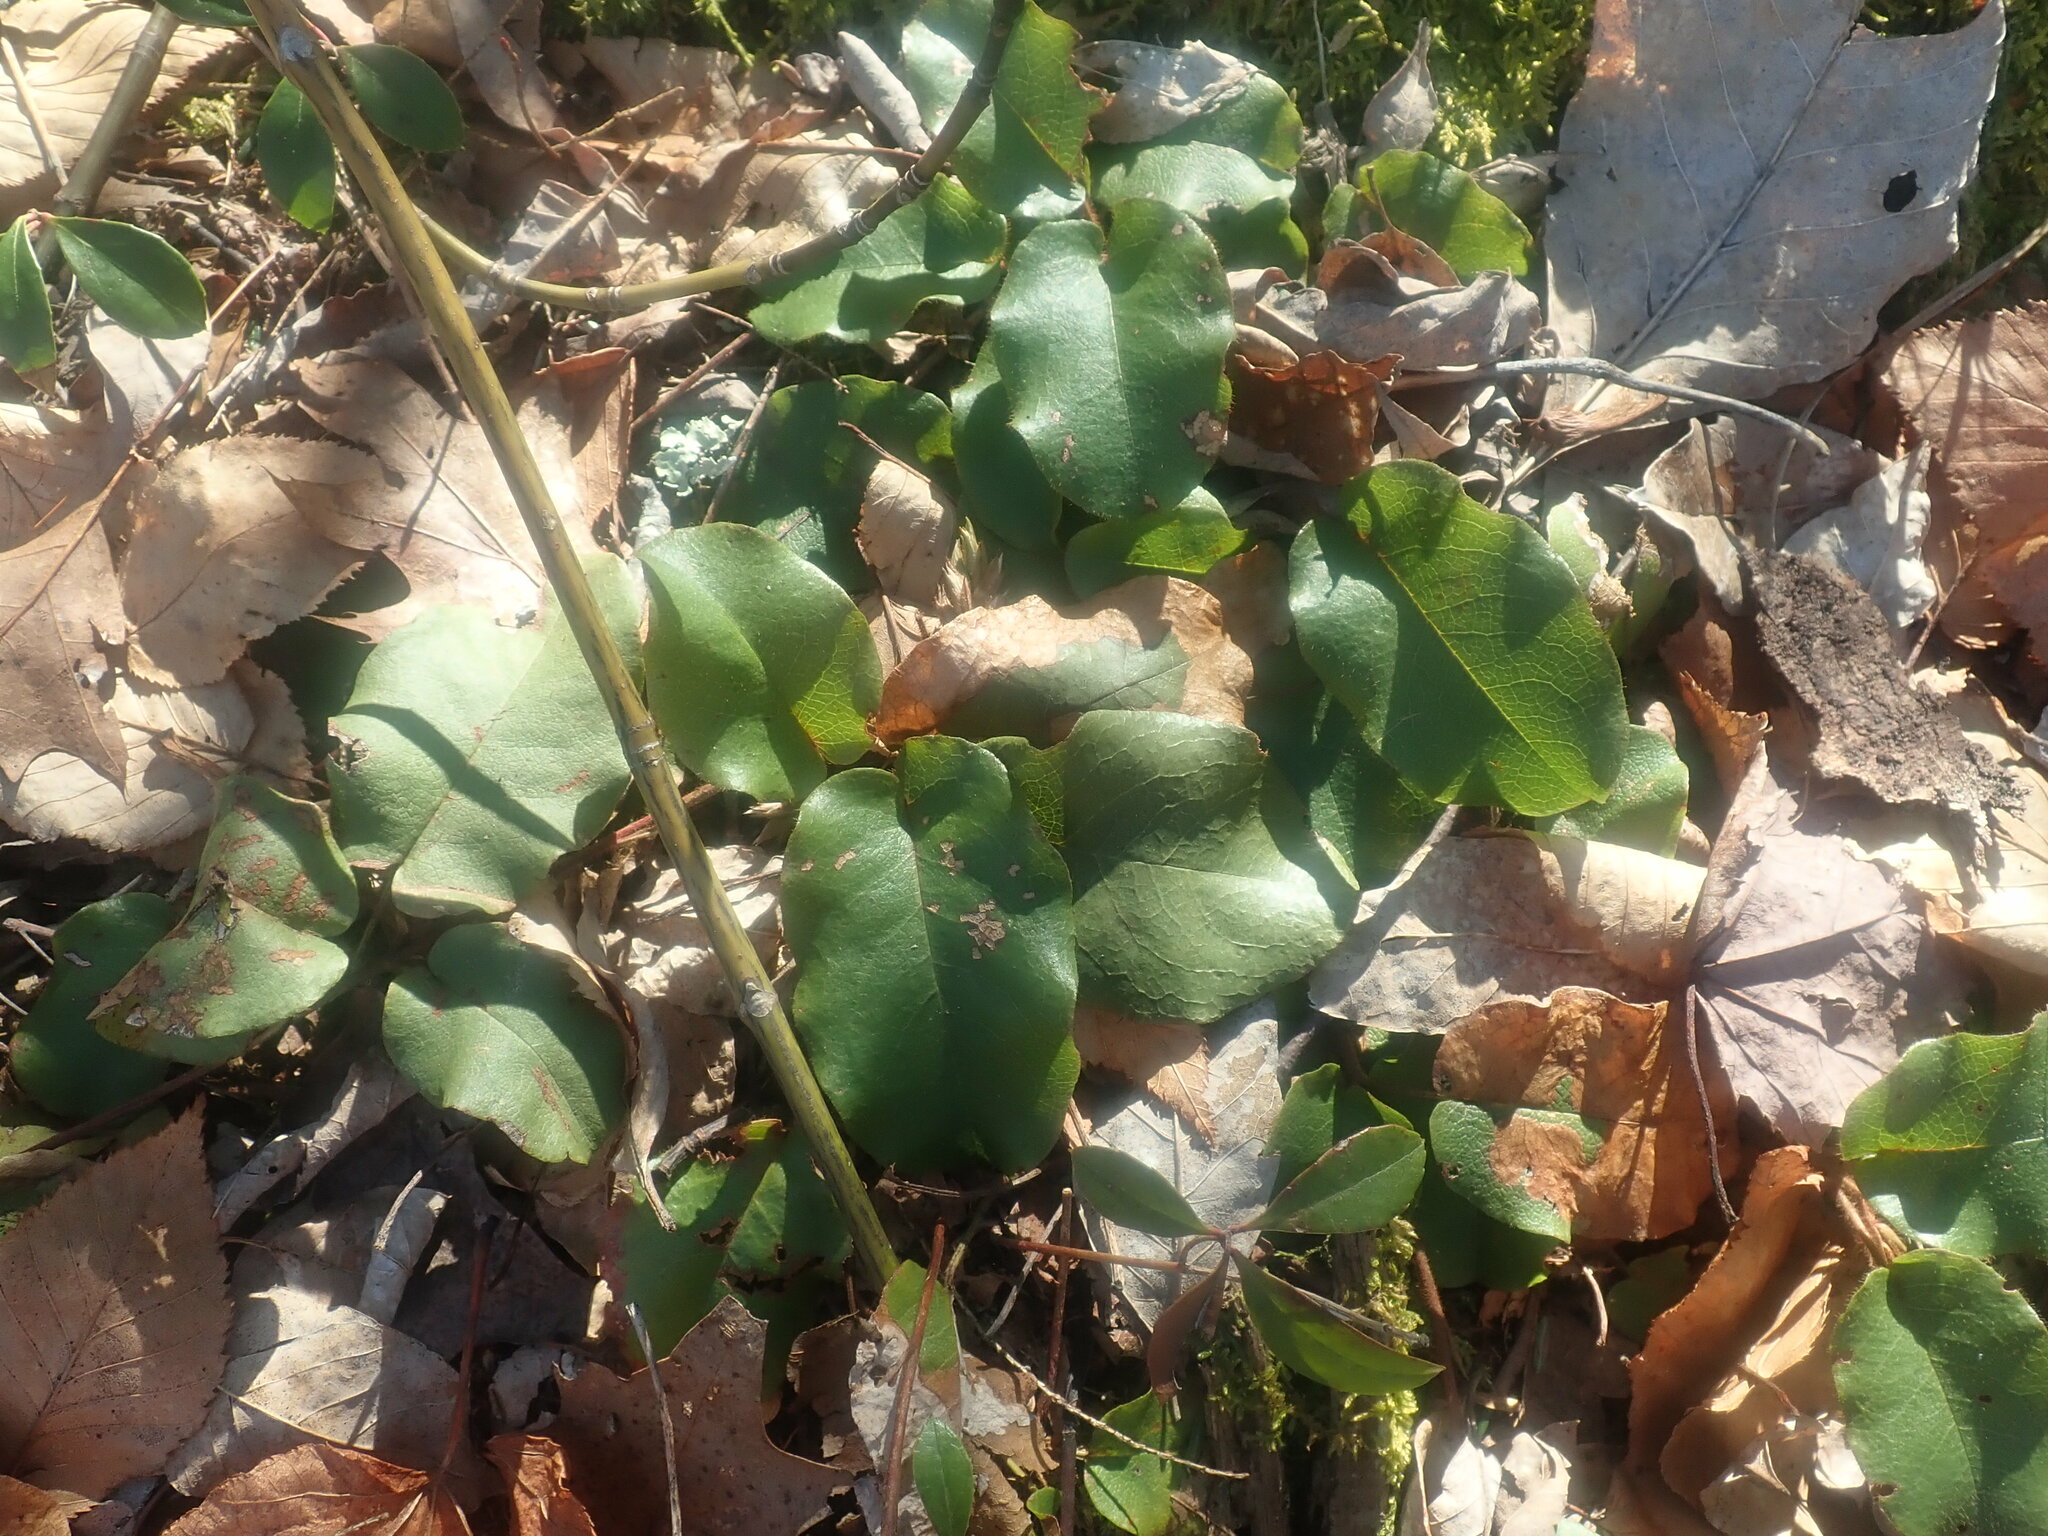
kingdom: Plantae
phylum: Tracheophyta
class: Magnoliopsida
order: Ericales
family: Ericaceae
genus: Epigaea
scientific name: Epigaea repens
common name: Gravelroot
